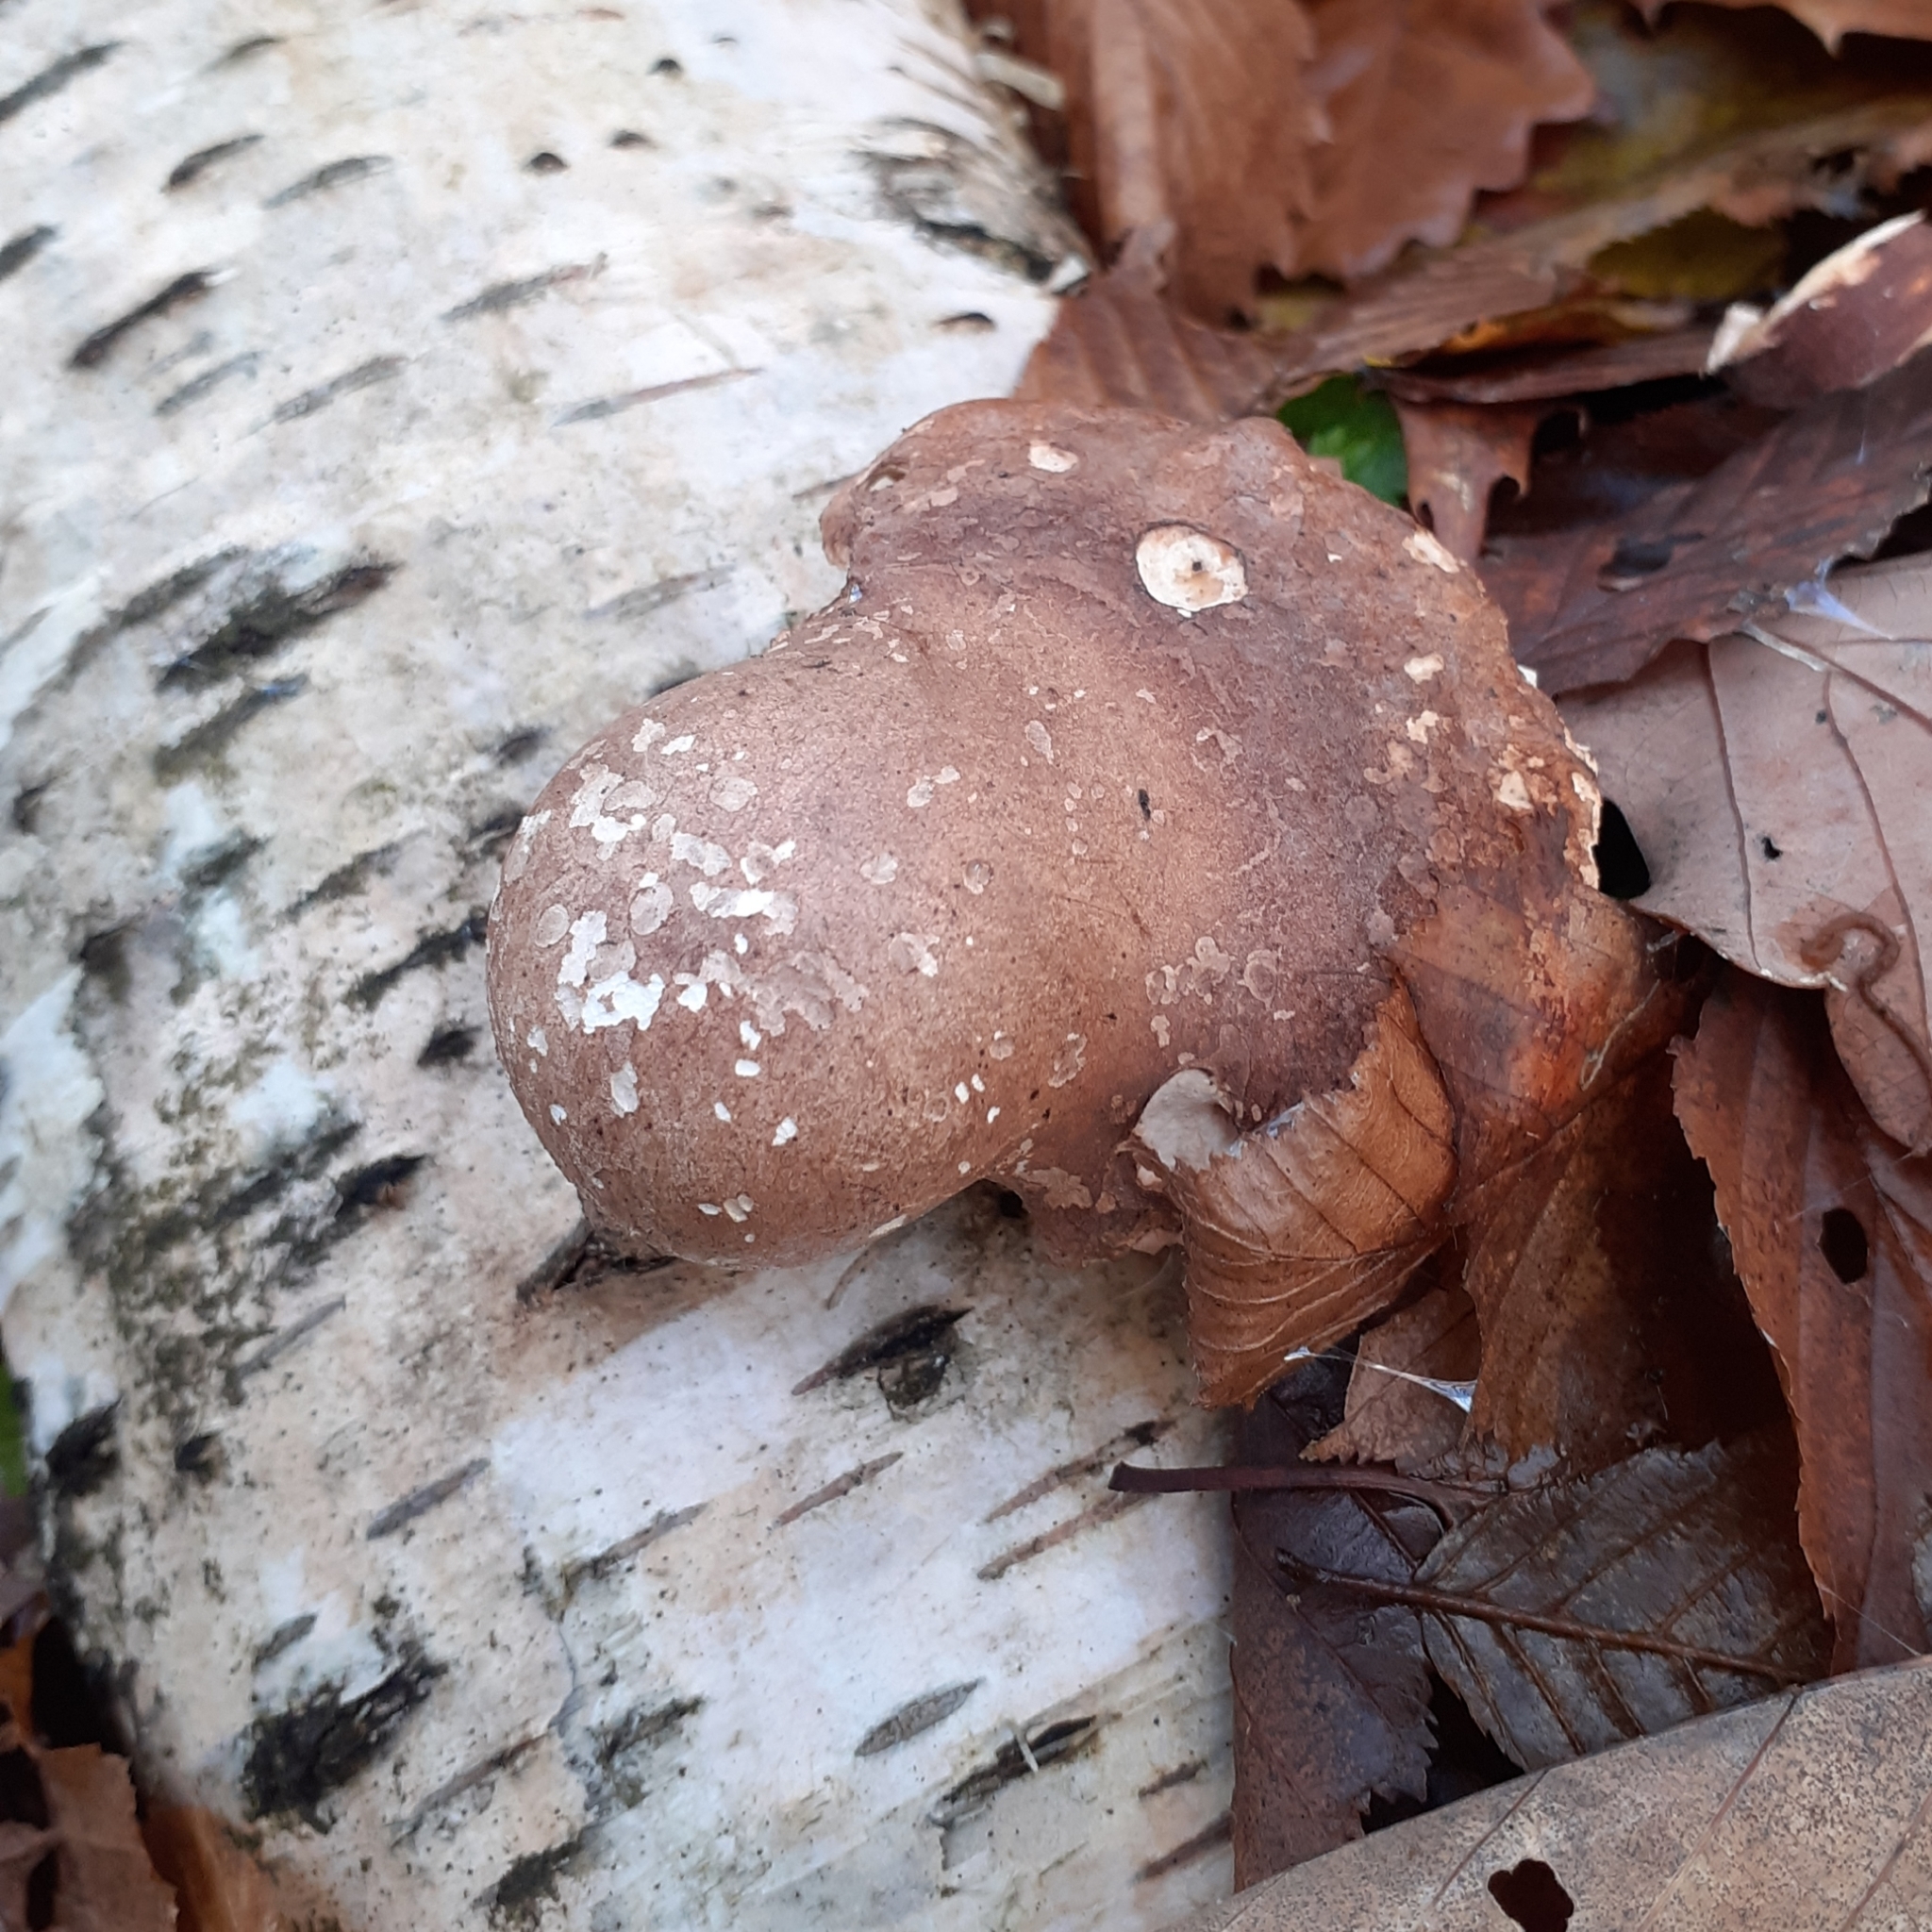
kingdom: Fungi
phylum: Basidiomycota
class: Agaricomycetes
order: Polyporales
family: Fomitopsidaceae
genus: Fomitopsis
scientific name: Fomitopsis betulina
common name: Birch polypore
